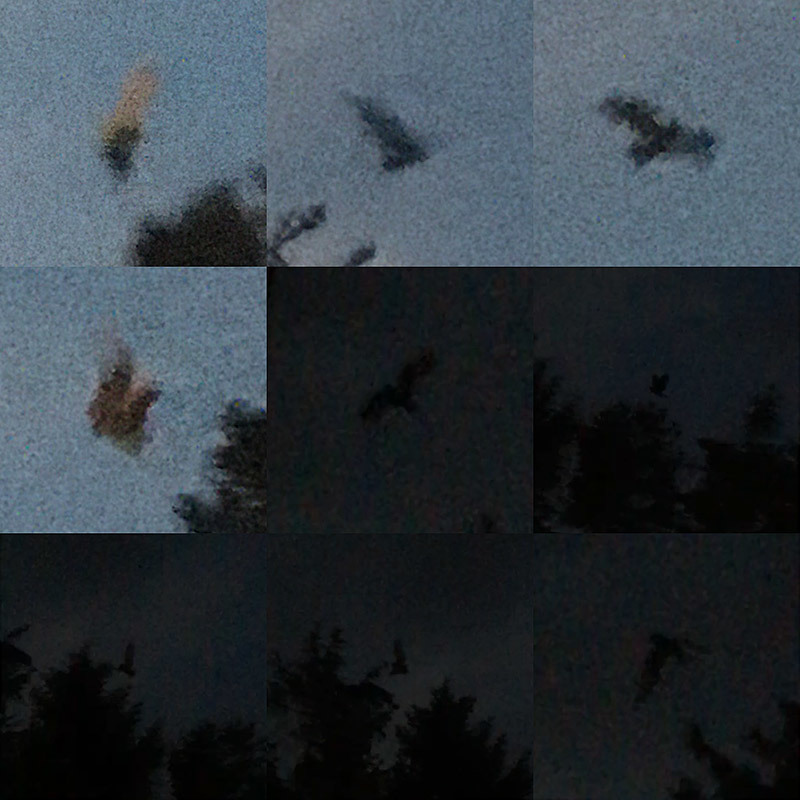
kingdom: Animalia
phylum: Chordata
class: Aves
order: Strigiformes
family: Strigidae
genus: Asio
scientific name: Asio otus
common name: Long-eared owl
